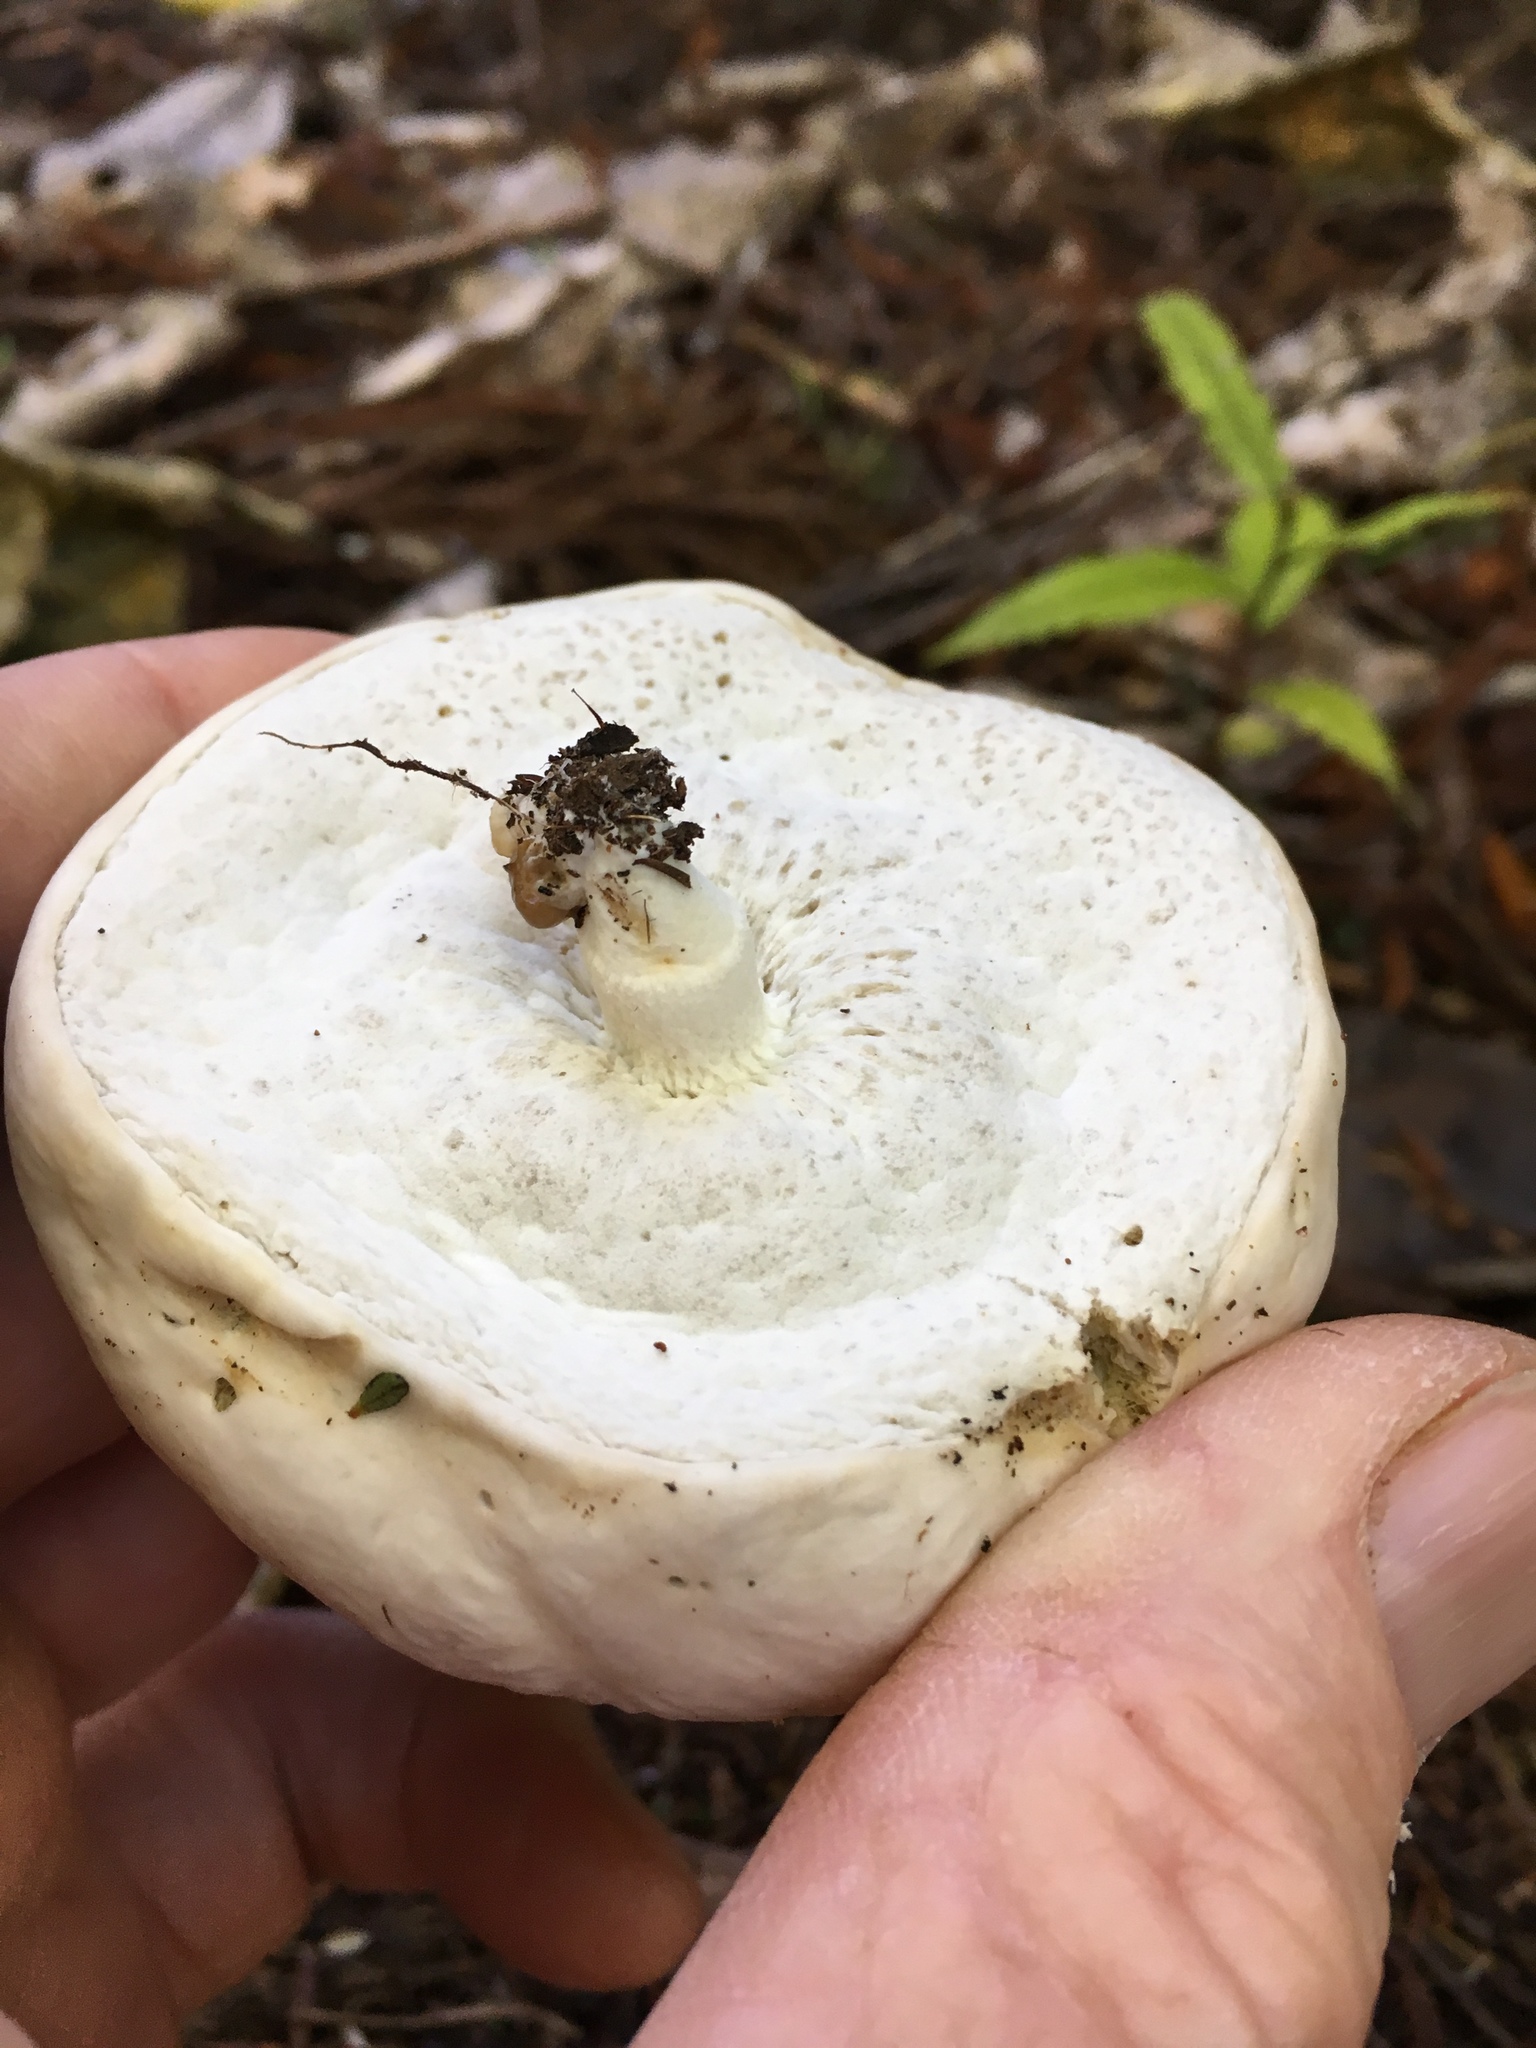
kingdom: Fungi
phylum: Basidiomycota
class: Agaricomycetes
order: Boletales
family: Boletaceae
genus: Boletus
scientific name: Boletus semigastroideus
